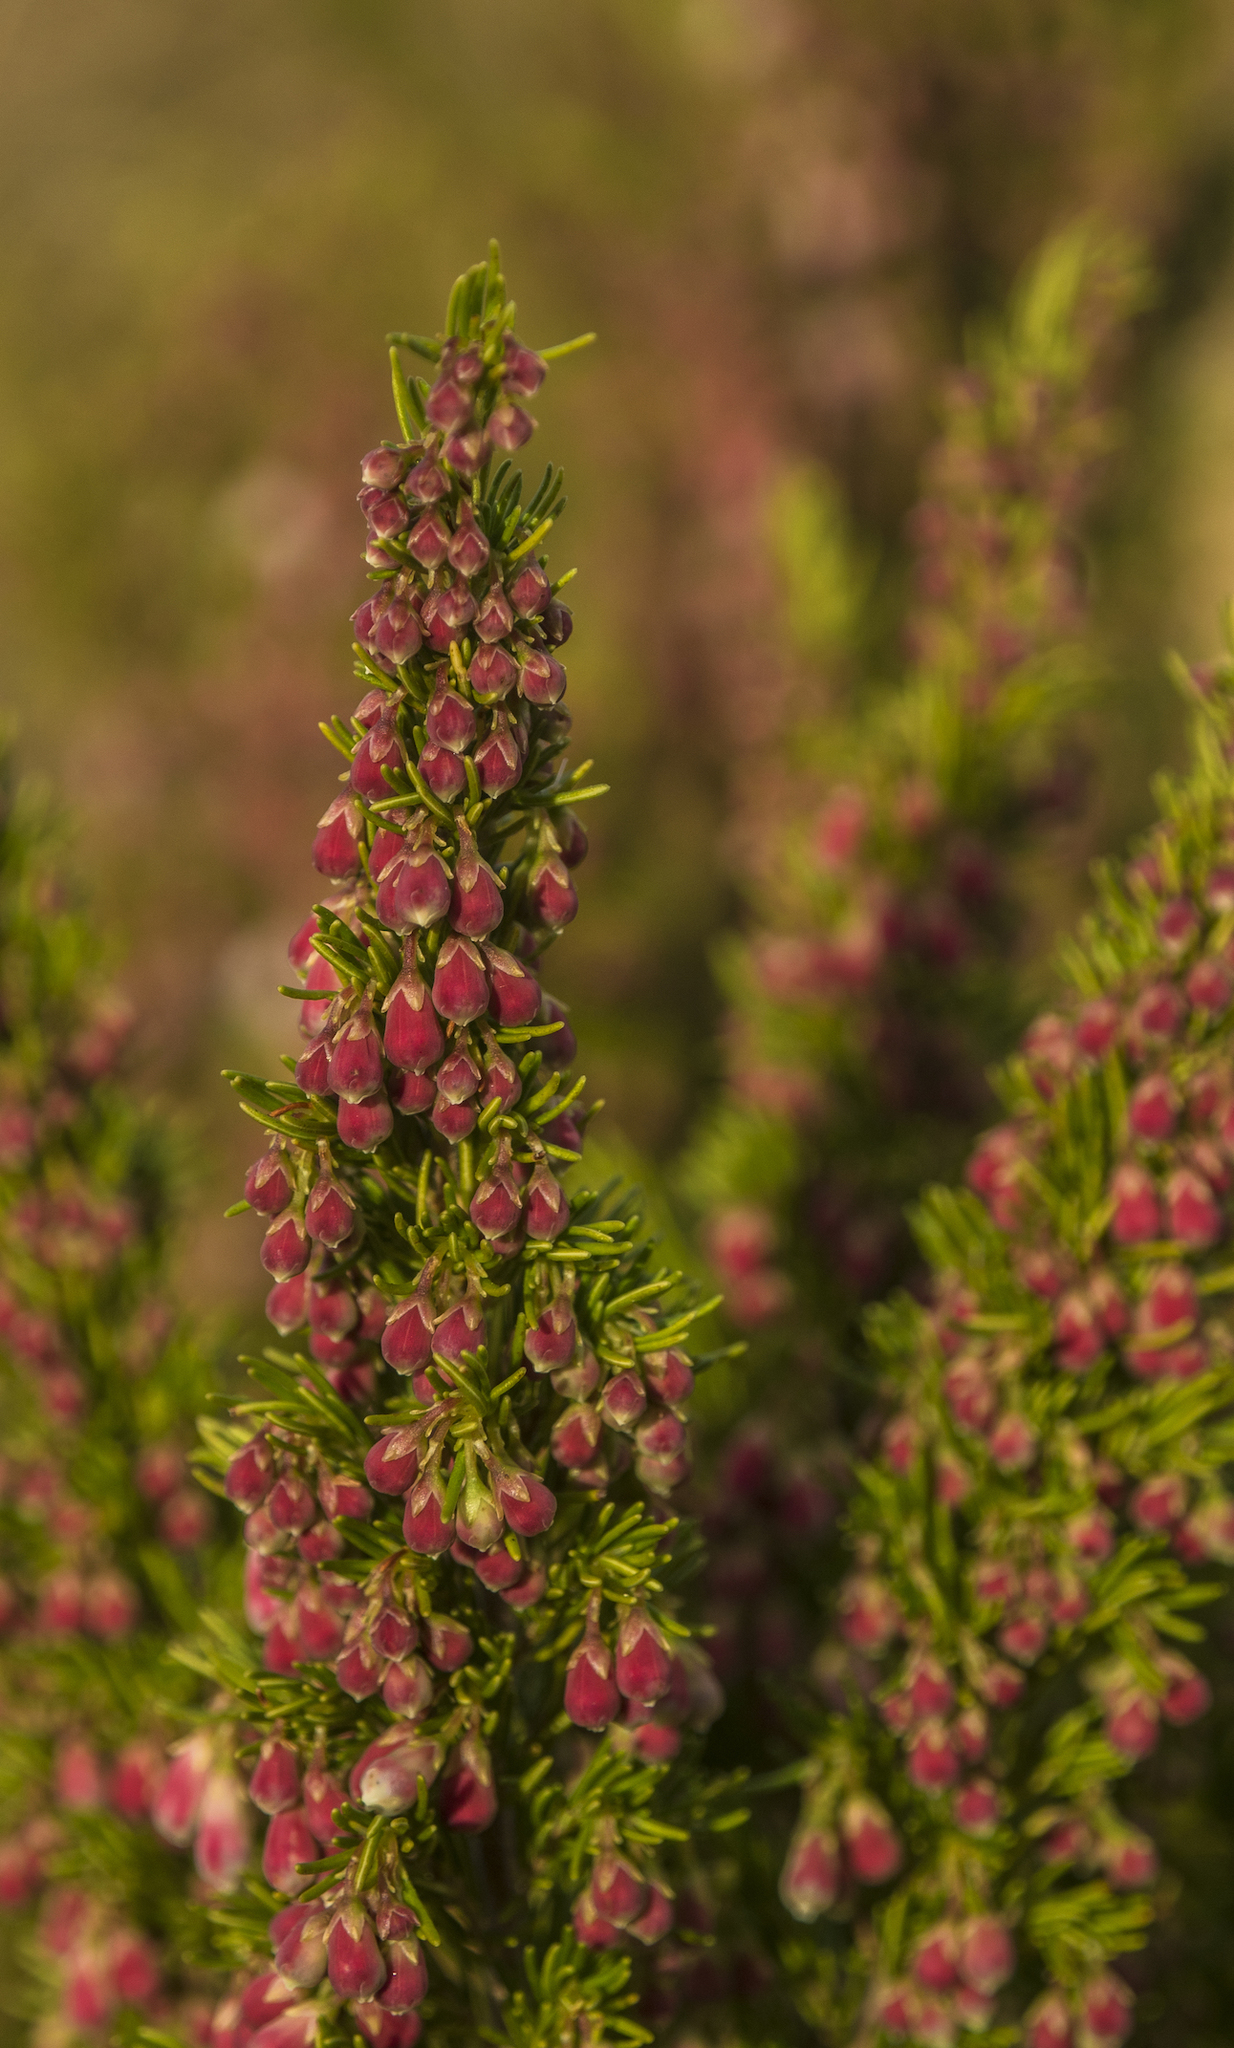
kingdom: Plantae
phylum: Tracheophyta
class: Magnoliopsida
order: Ericales
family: Ericaceae
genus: Erica
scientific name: Erica lusitanica
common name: Spanish heath
